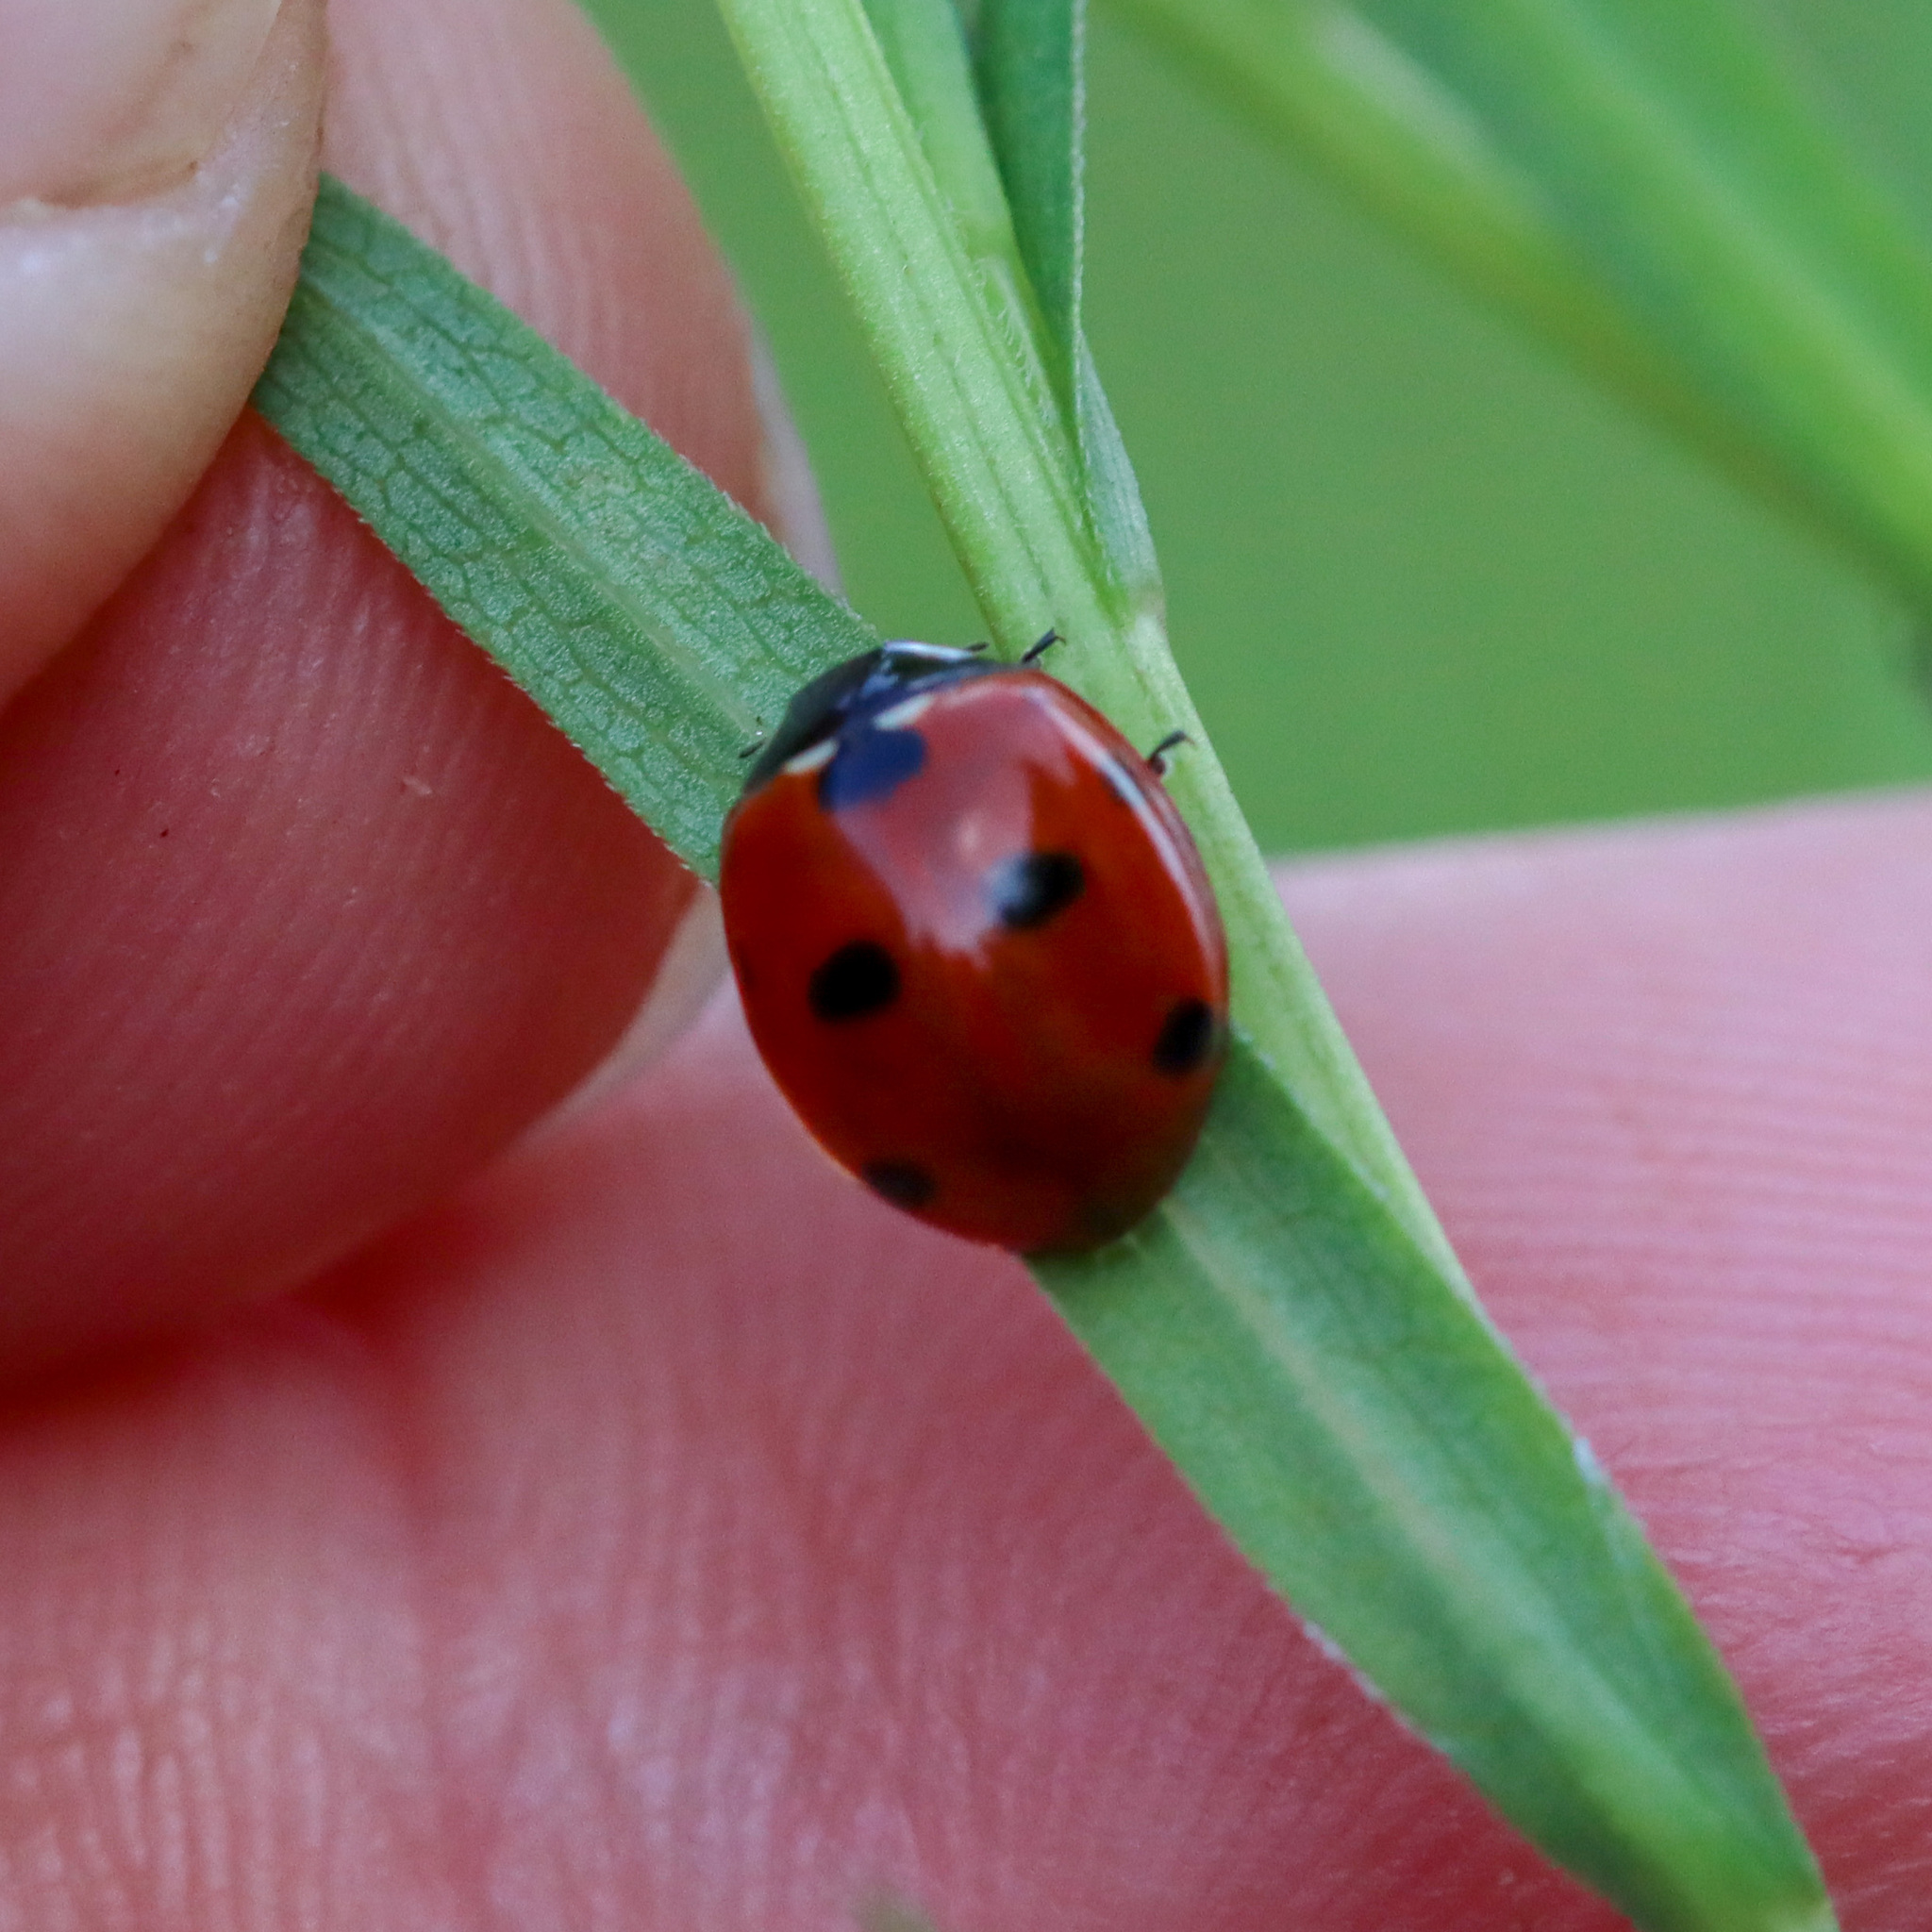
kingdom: Animalia
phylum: Arthropoda
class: Insecta
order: Coleoptera
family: Coccinellidae
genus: Coccinella
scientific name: Coccinella septempunctata
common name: Sevenspotted lady beetle
